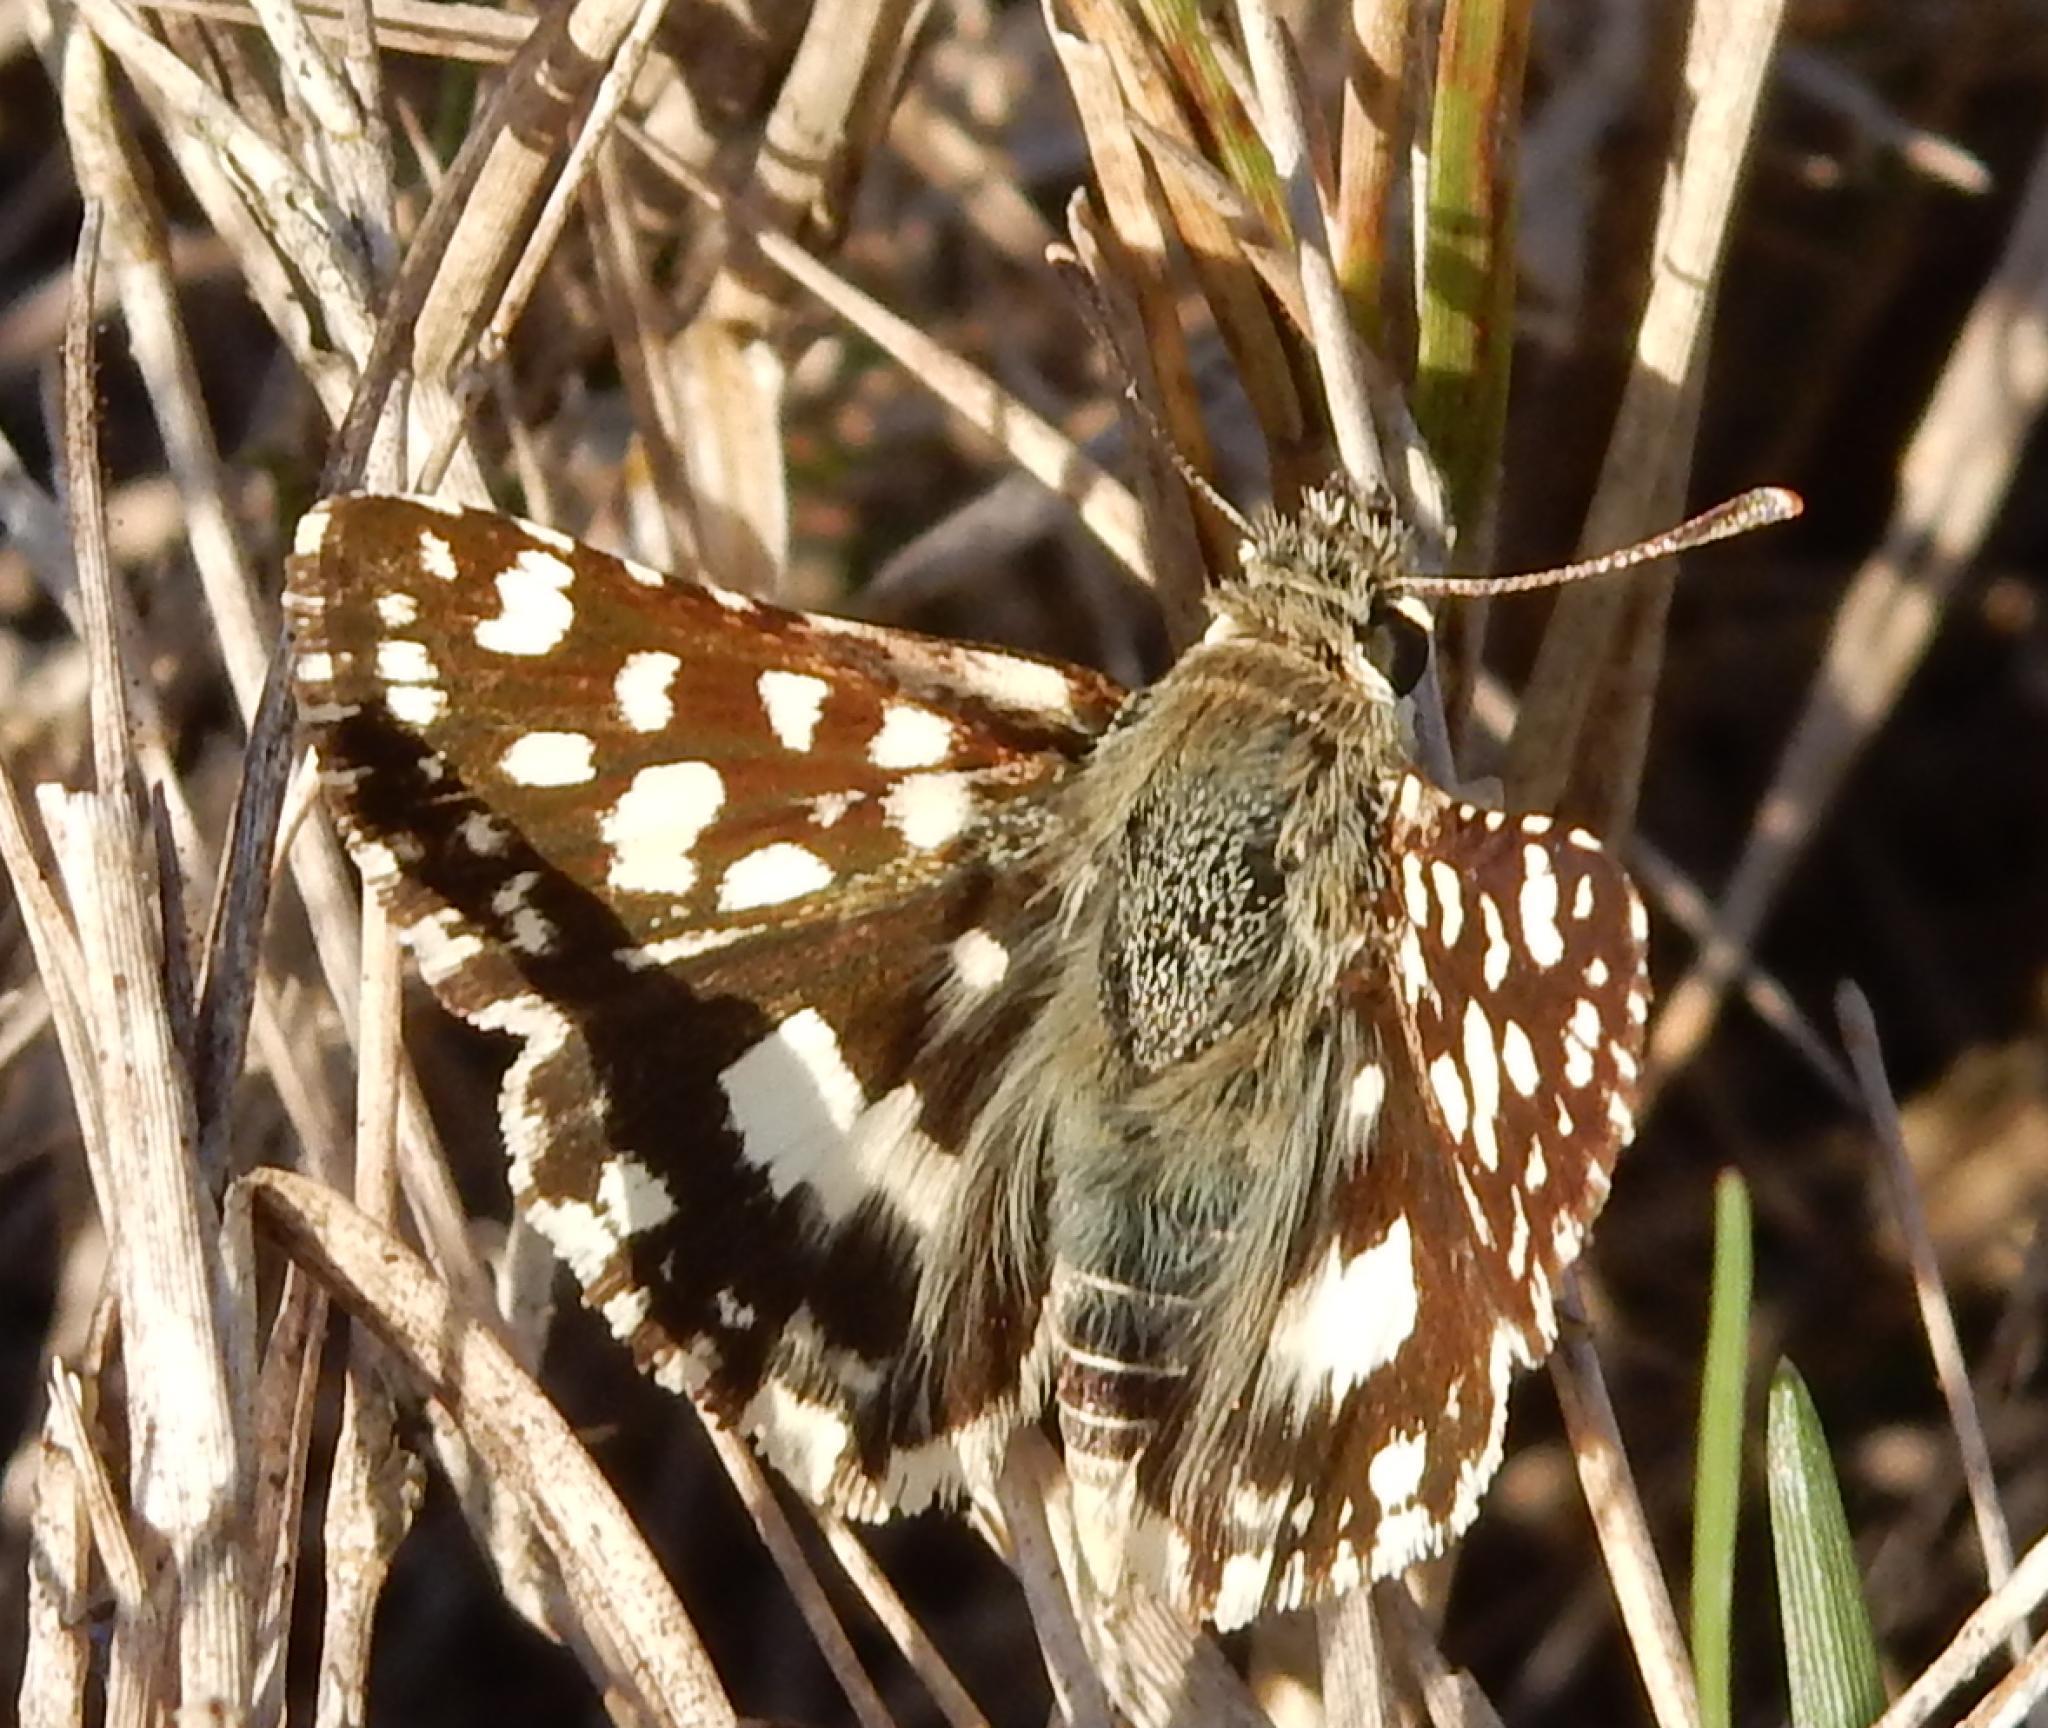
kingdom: Animalia
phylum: Arthropoda
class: Insecta
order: Lepidoptera
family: Hesperiidae
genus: Spialia
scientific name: Spialia spio
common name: Mountain sandman
